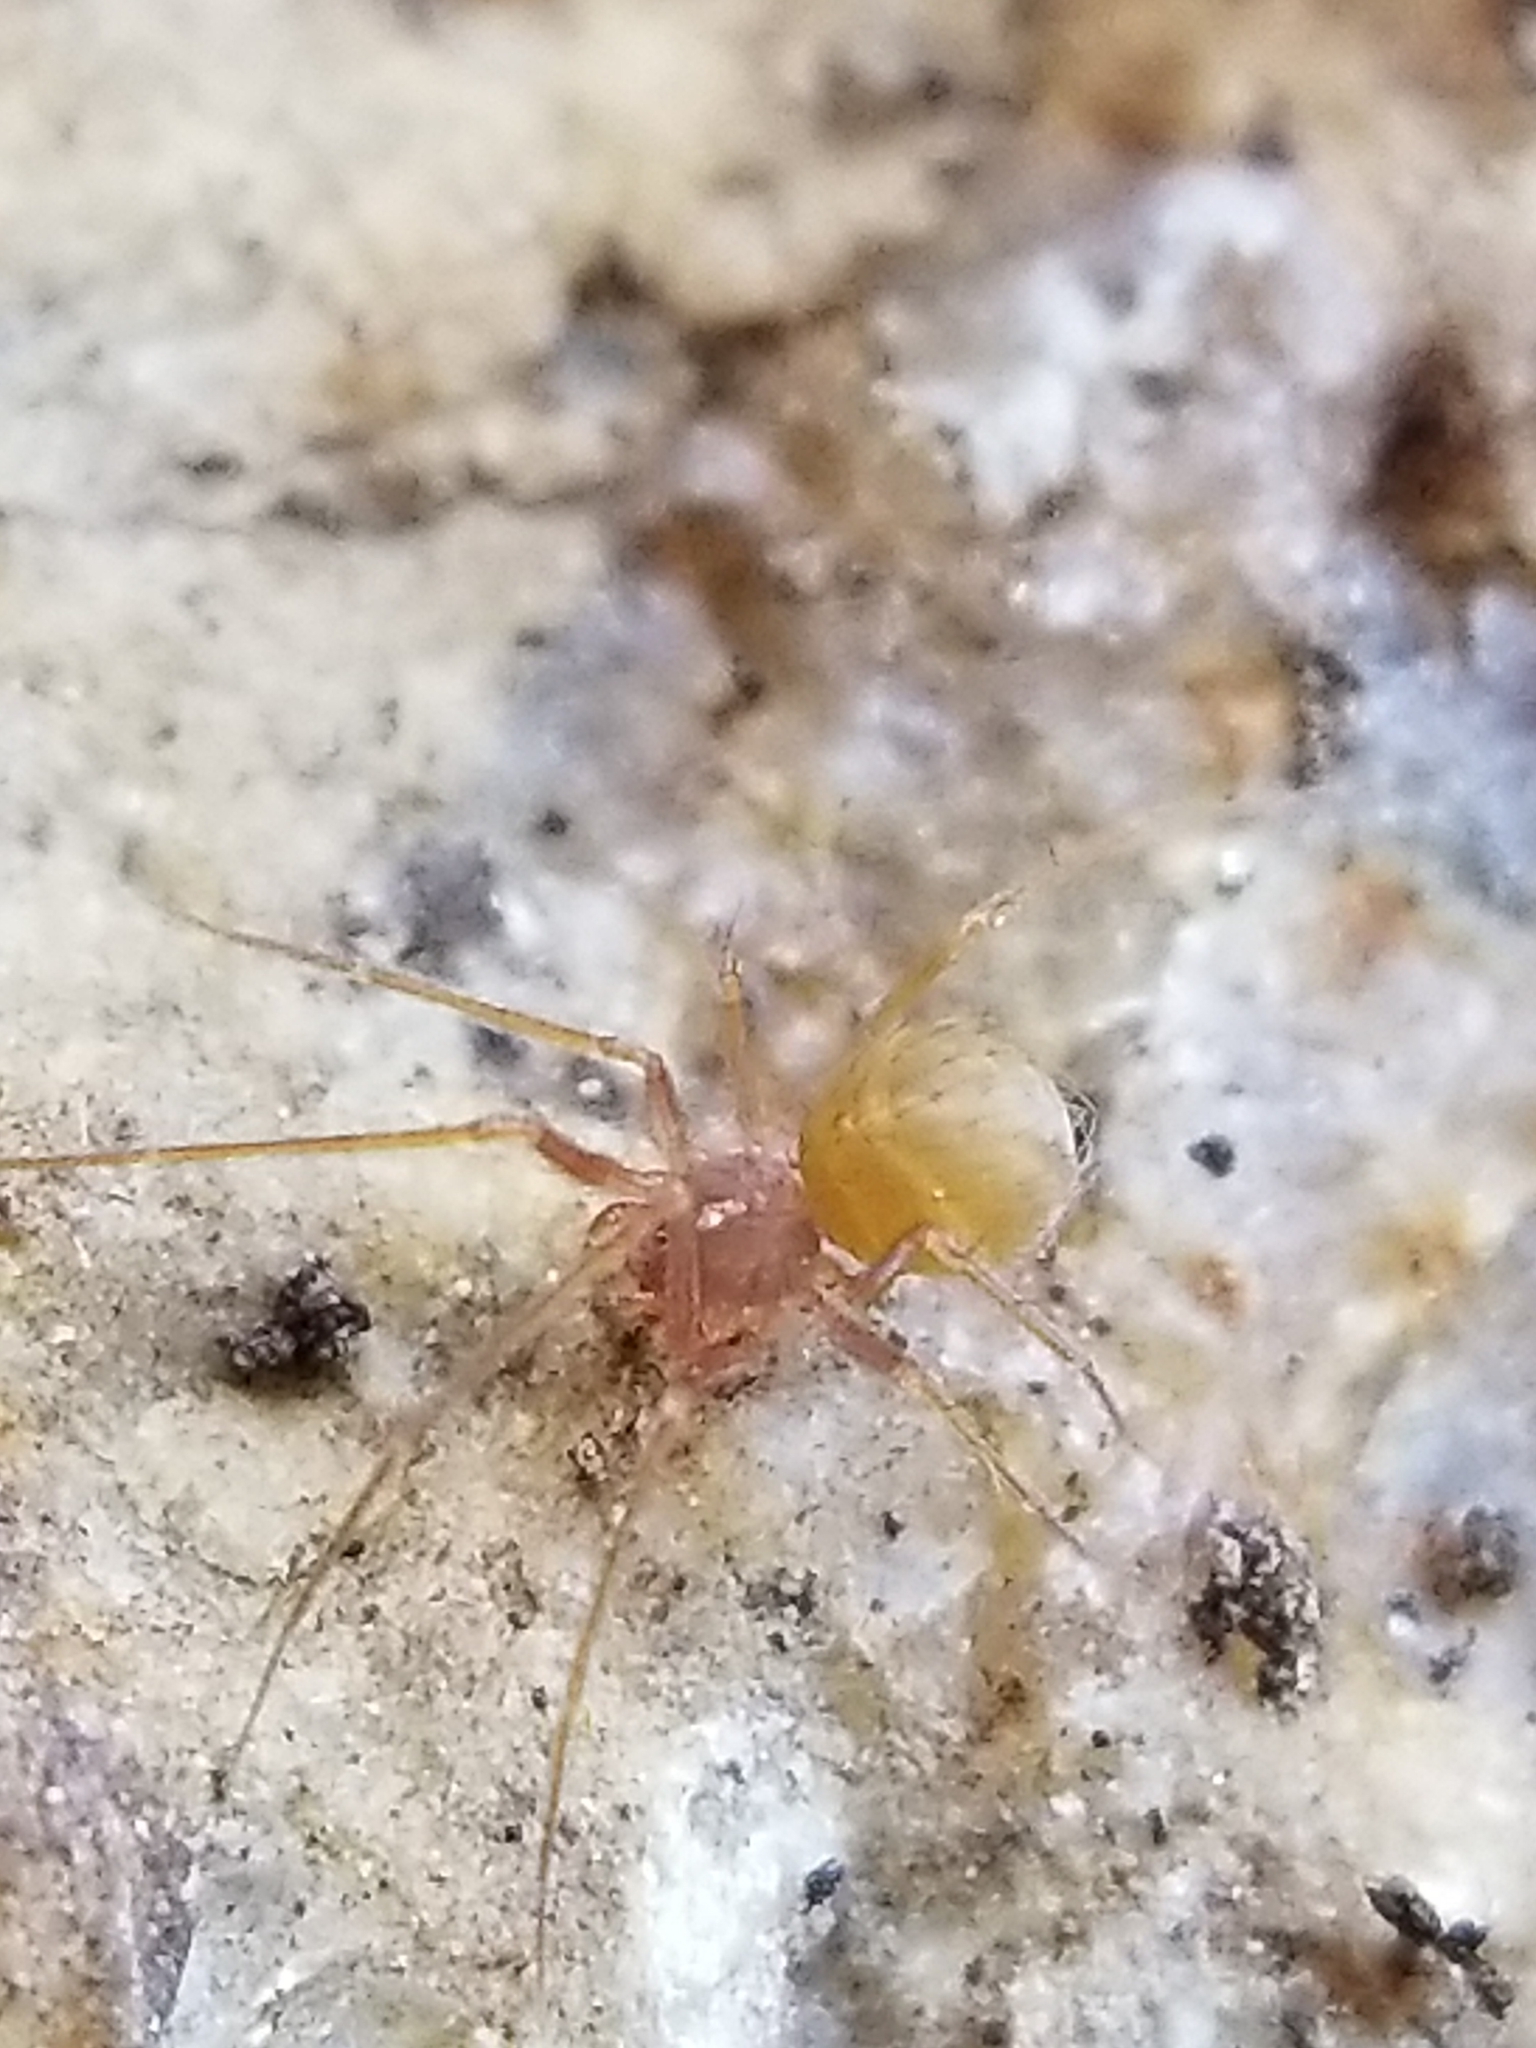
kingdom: Animalia
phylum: Arthropoda
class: Arachnida
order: Araneae
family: Telemidae
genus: Usofila
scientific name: Usofila flava
